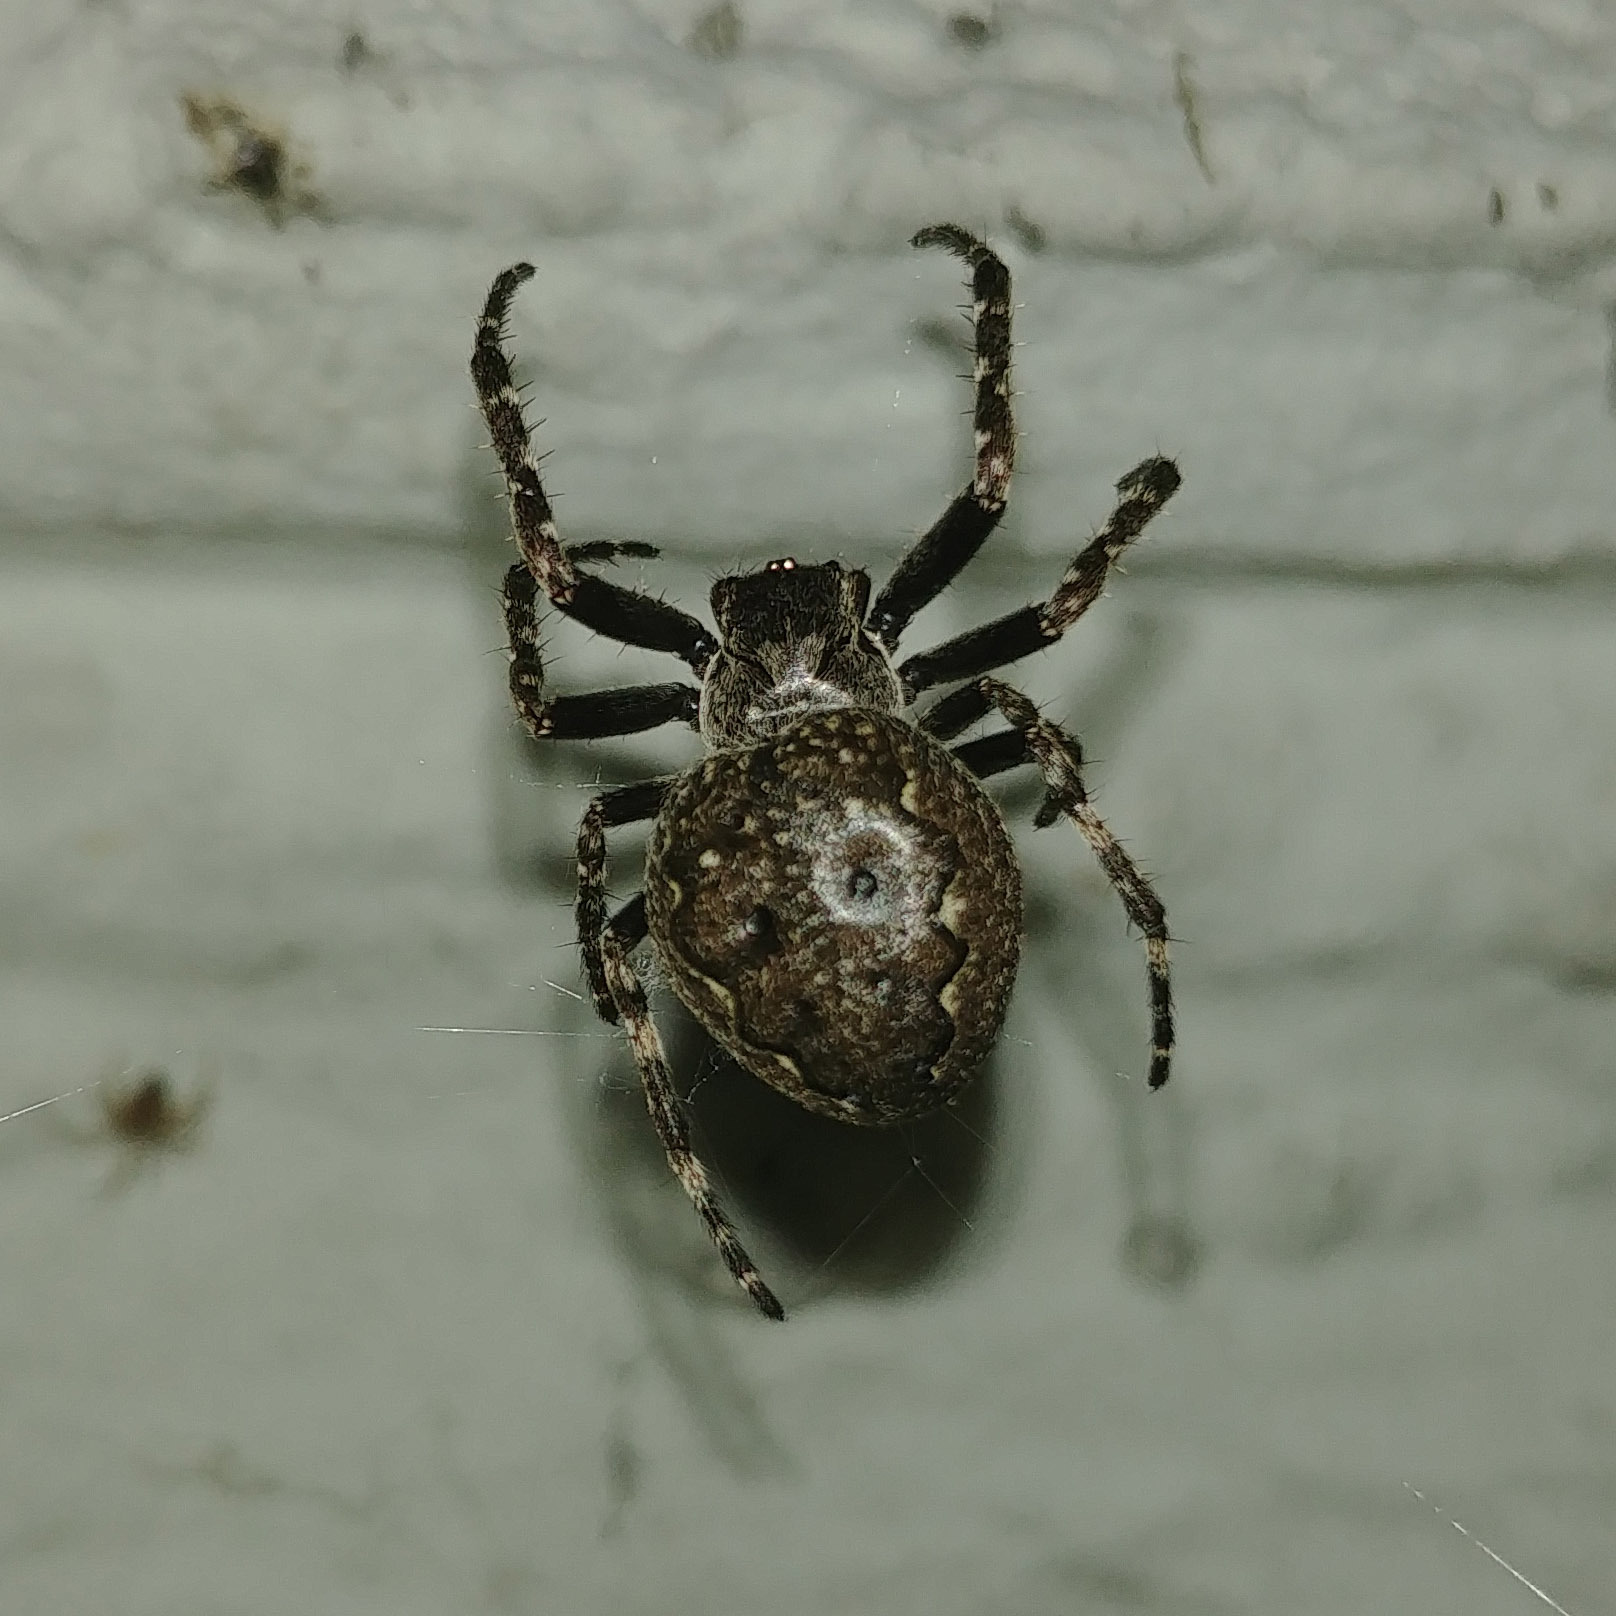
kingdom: Animalia
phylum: Arthropoda
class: Arachnida
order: Araneae
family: Araneidae
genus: Nuctenea
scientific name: Nuctenea umbratica
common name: Toad spider
